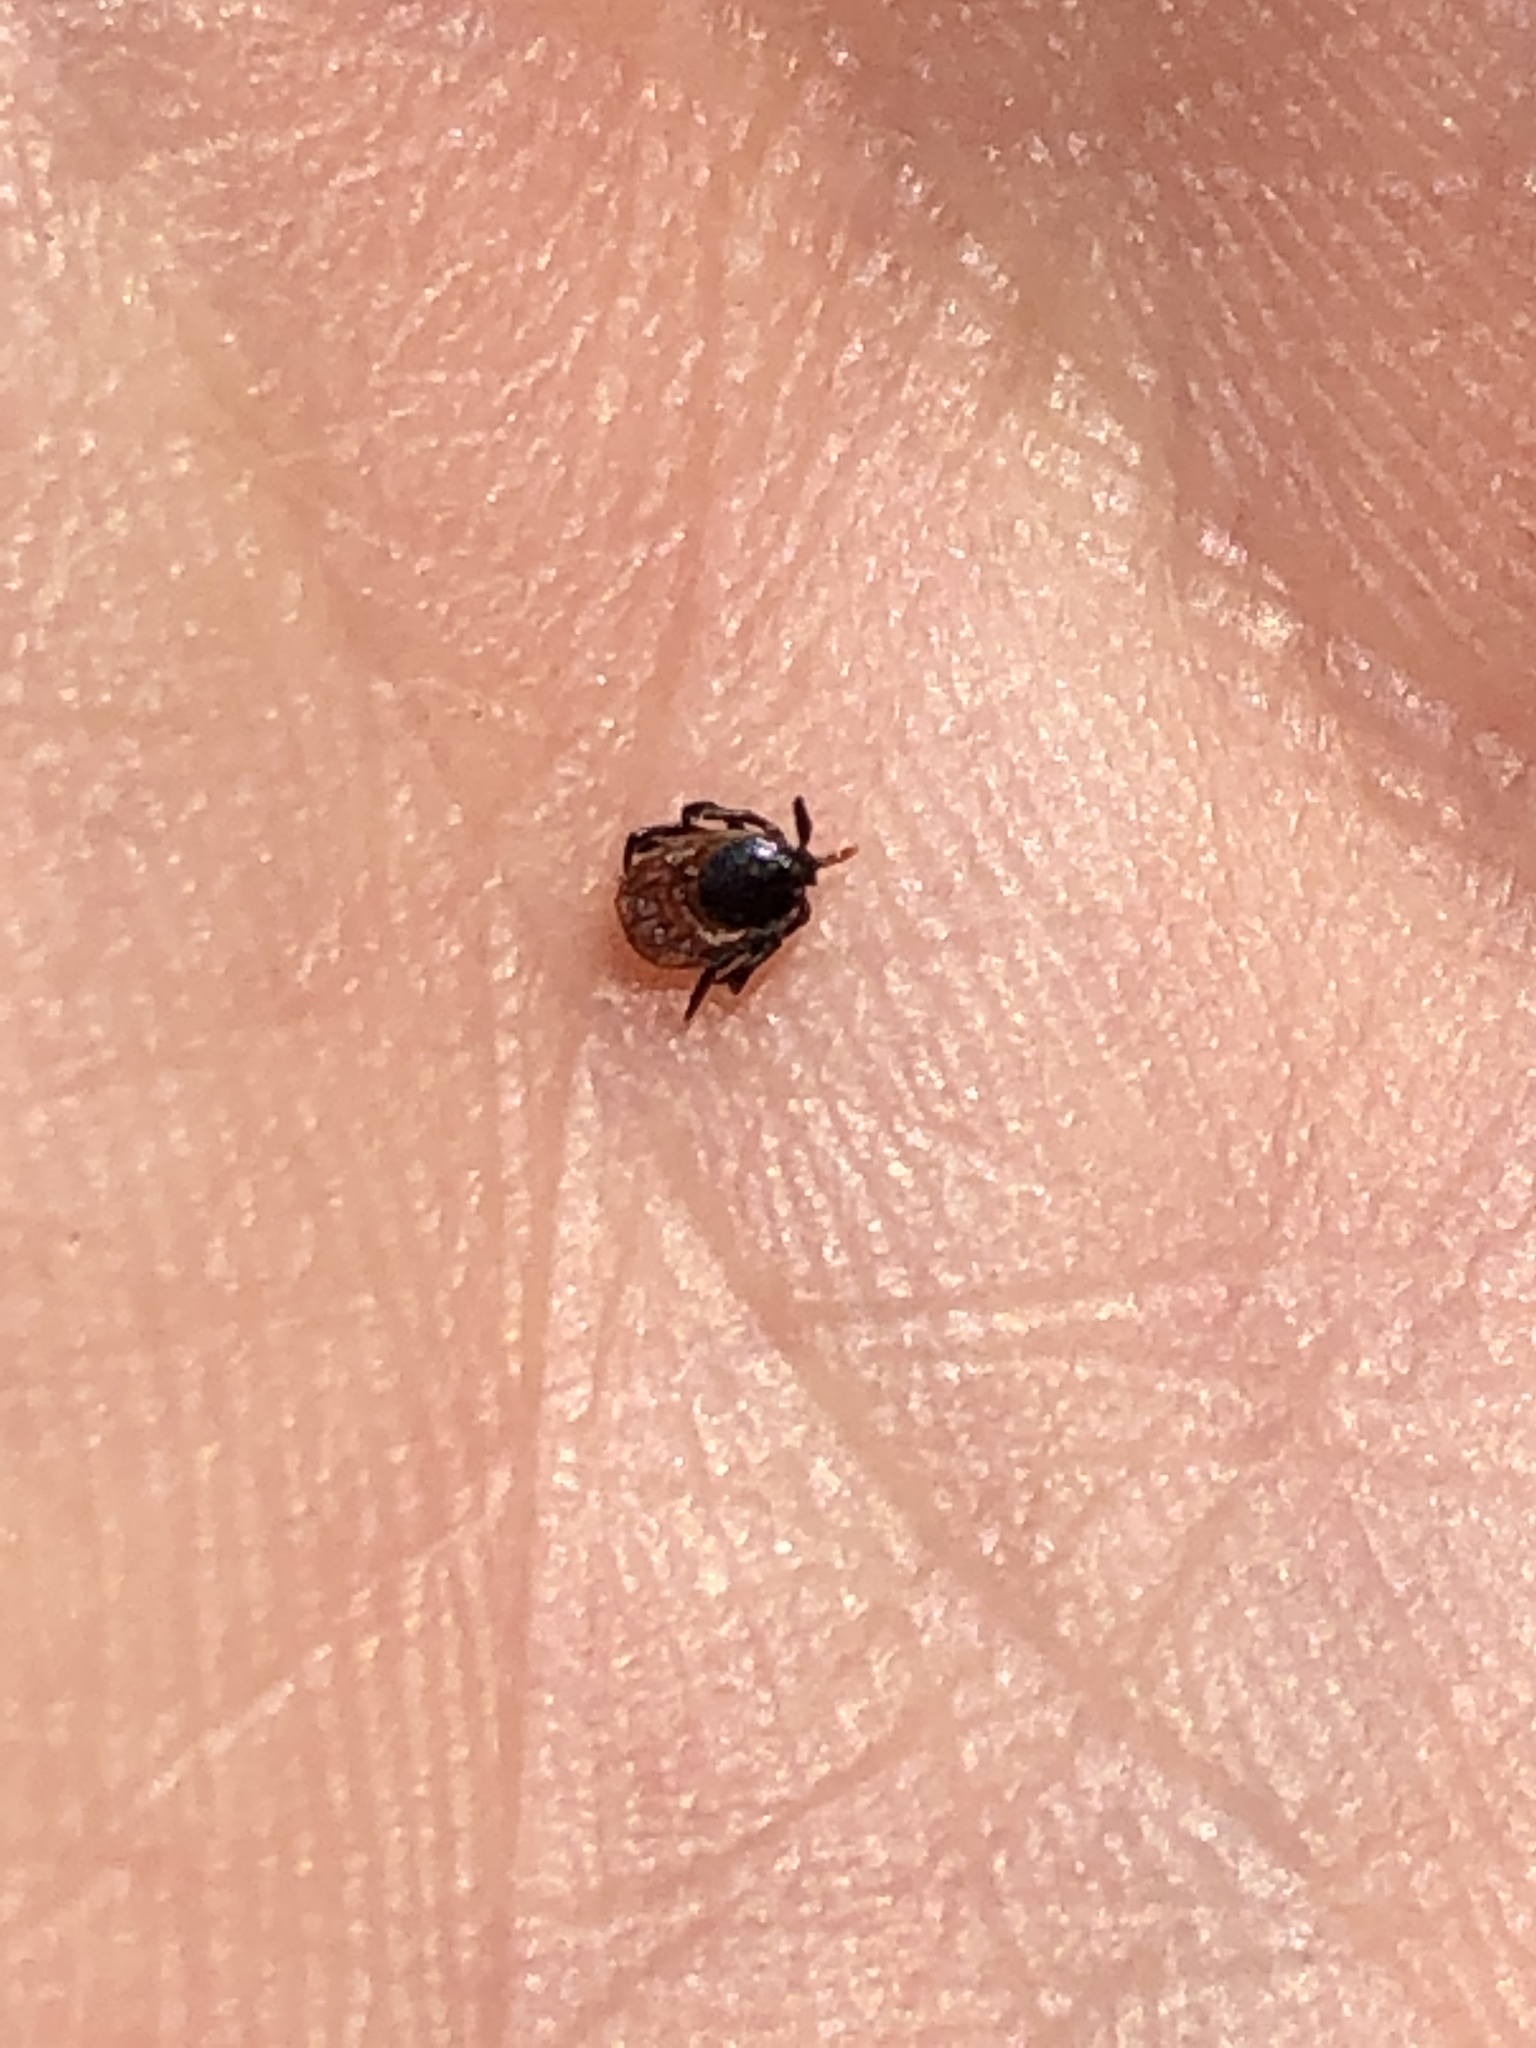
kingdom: Animalia
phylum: Arthropoda
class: Arachnida
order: Ixodida
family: Ixodidae
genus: Ixodes
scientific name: Ixodes ricinus
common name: Castor bean tick
